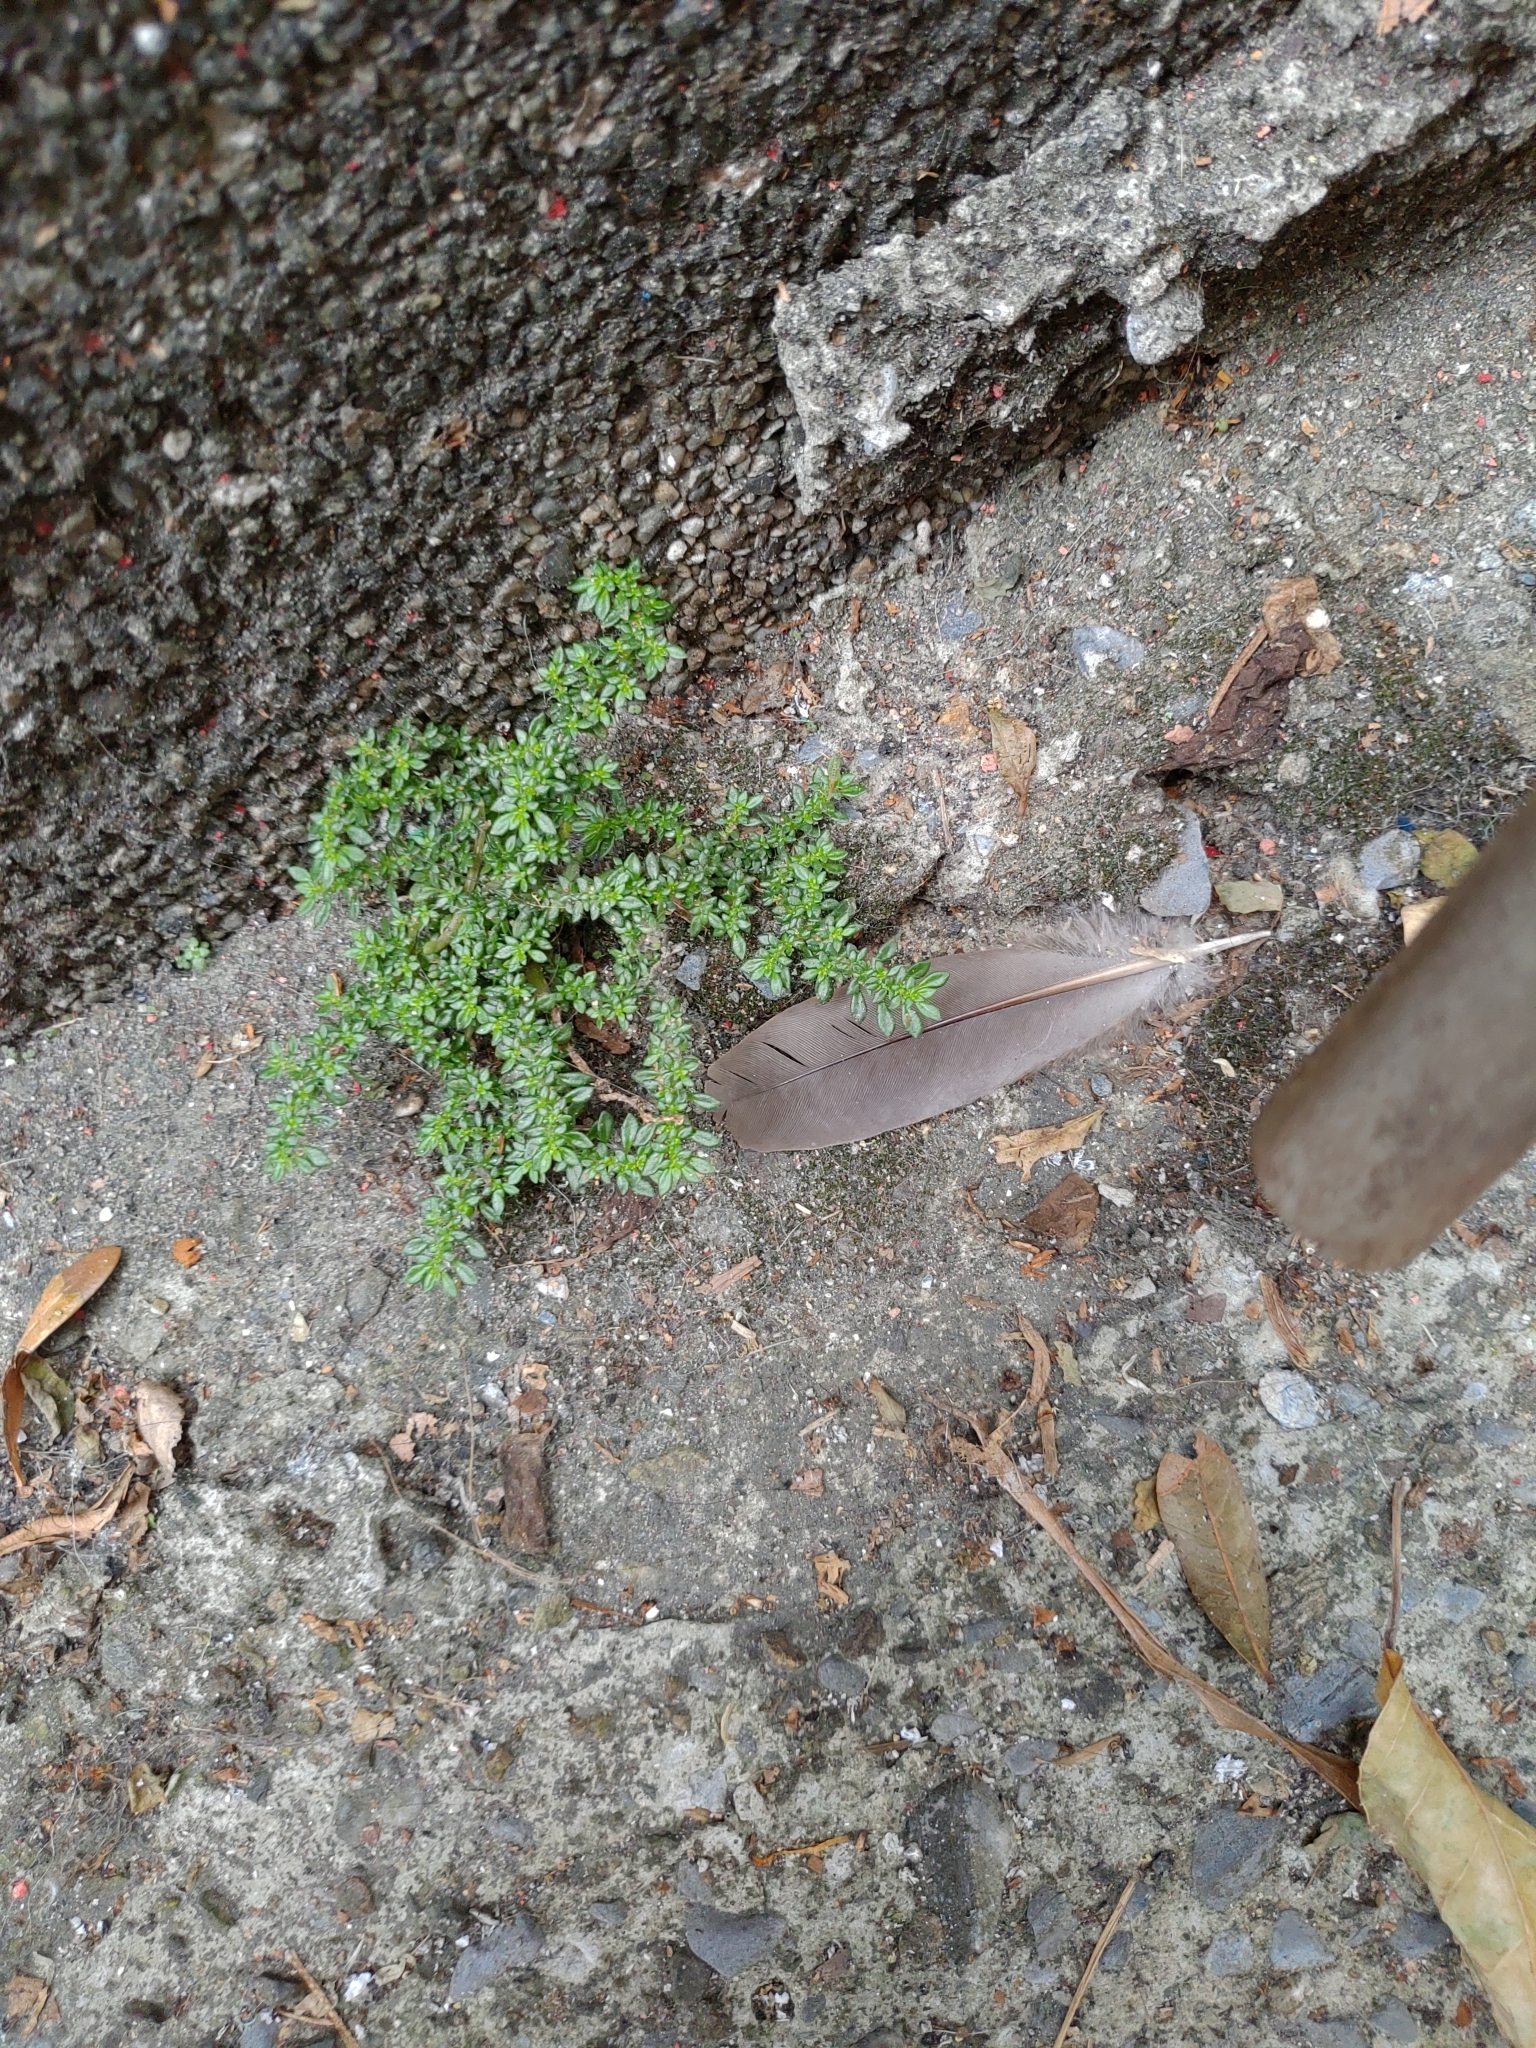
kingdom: Plantae
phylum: Tracheophyta
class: Magnoliopsida
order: Rosales
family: Urticaceae
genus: Pilea
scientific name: Pilea microphylla
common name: Artillery-plant
